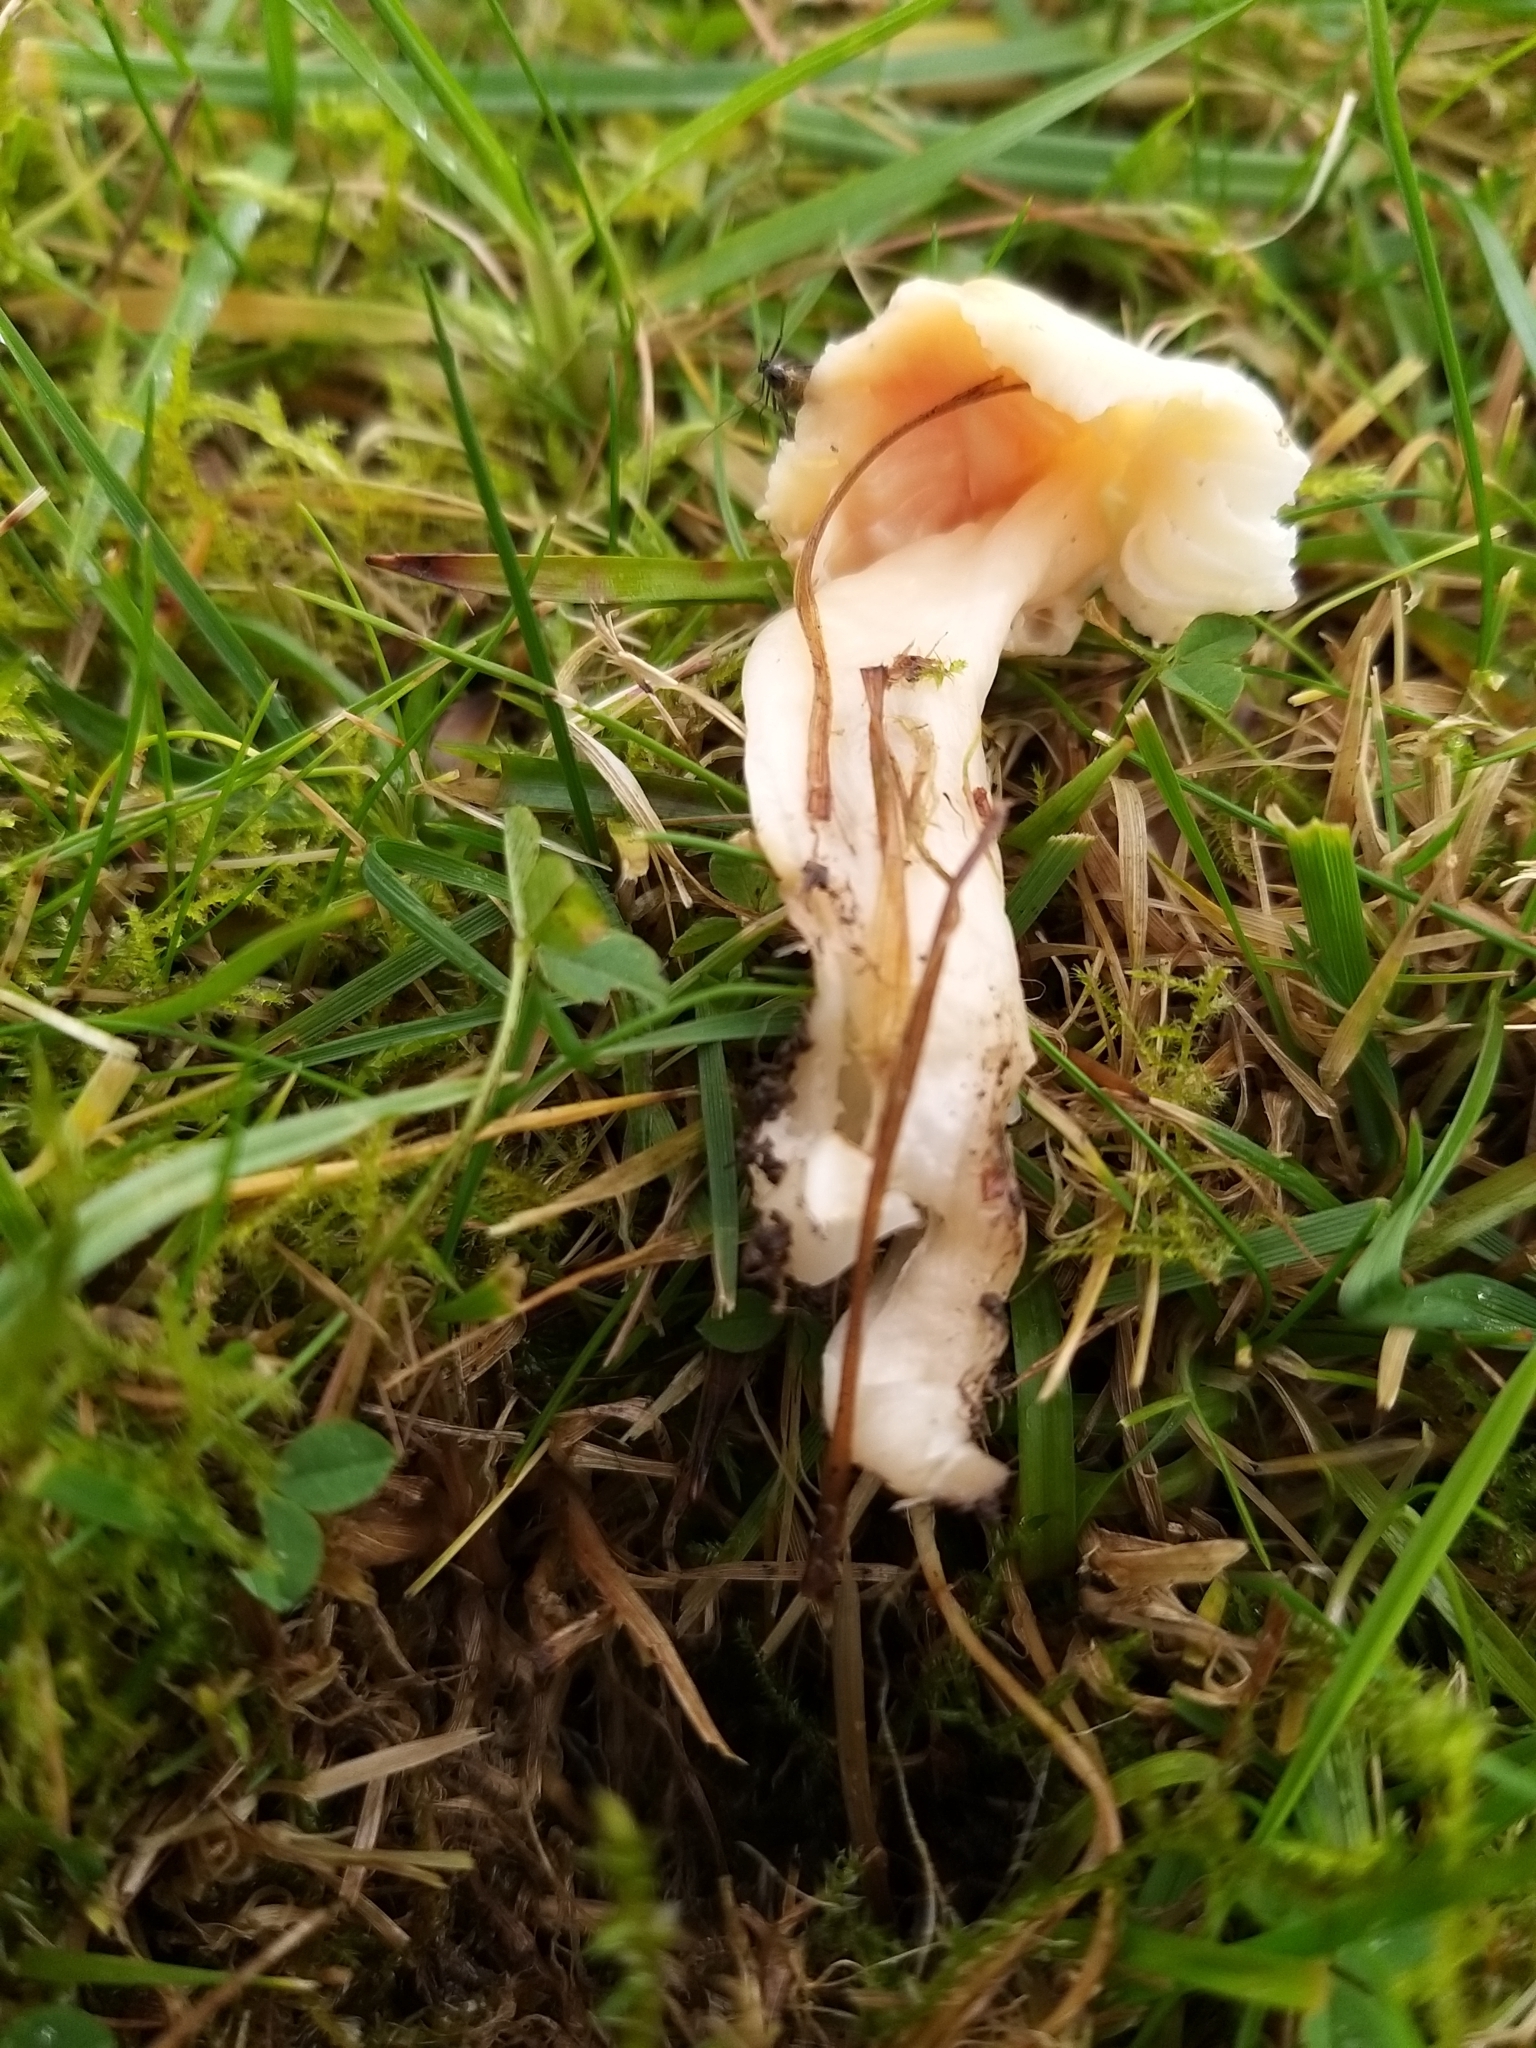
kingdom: Fungi
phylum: Basidiomycota
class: Agaricomycetes
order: Agaricales
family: Hygrophoraceae
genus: Gliophorus
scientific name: Gliophorus reginae
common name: Jubilee waxcap
